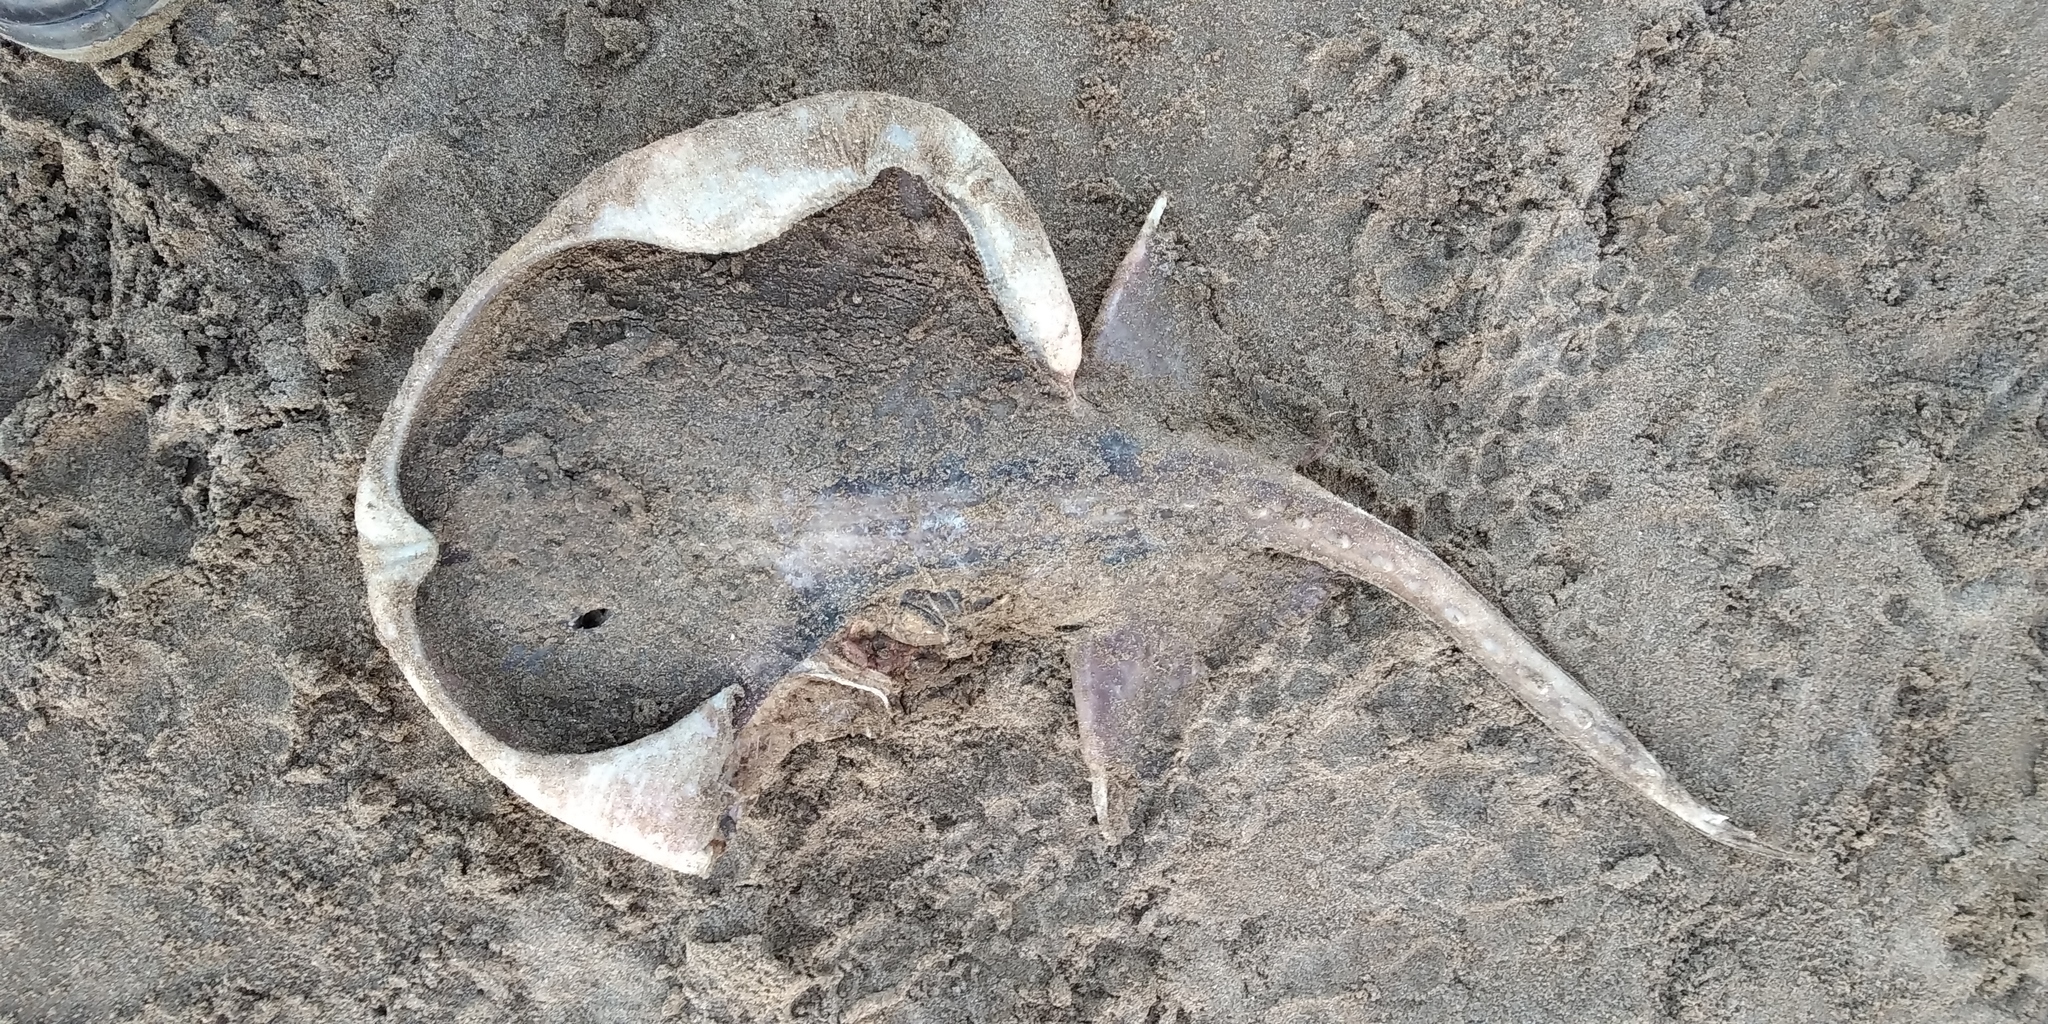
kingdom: Animalia
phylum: Chordata
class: Elasmobranchii
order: Rajiformes
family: Arhynchobatidae
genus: Sympterygia
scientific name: Sympterygia bonapartii
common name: Smallnose fanskate
